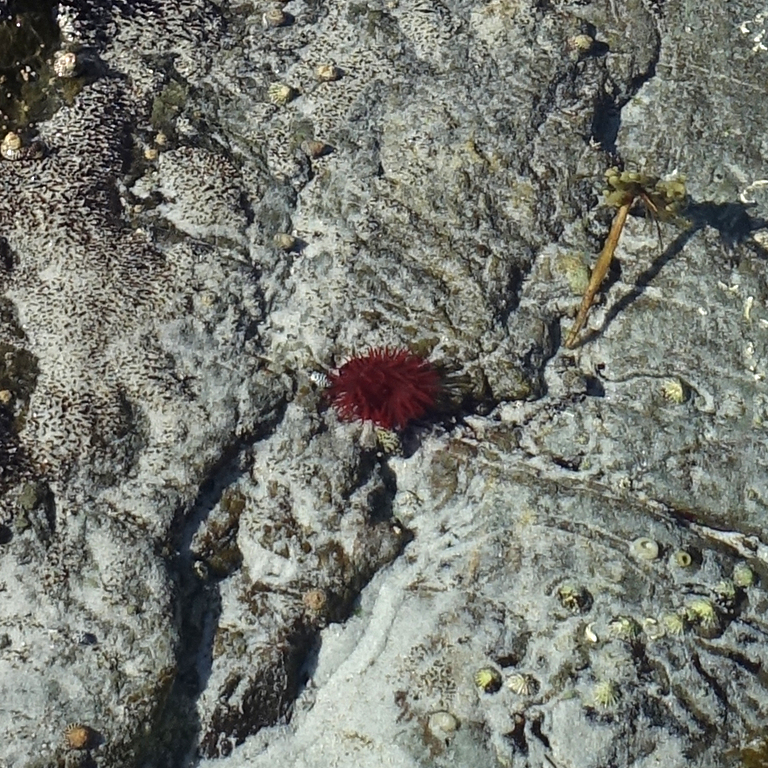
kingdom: Animalia
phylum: Cnidaria
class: Anthozoa
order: Actiniaria
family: Actiniidae
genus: Actinia
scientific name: Actinia tenebrosa
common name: Waratah anemone
